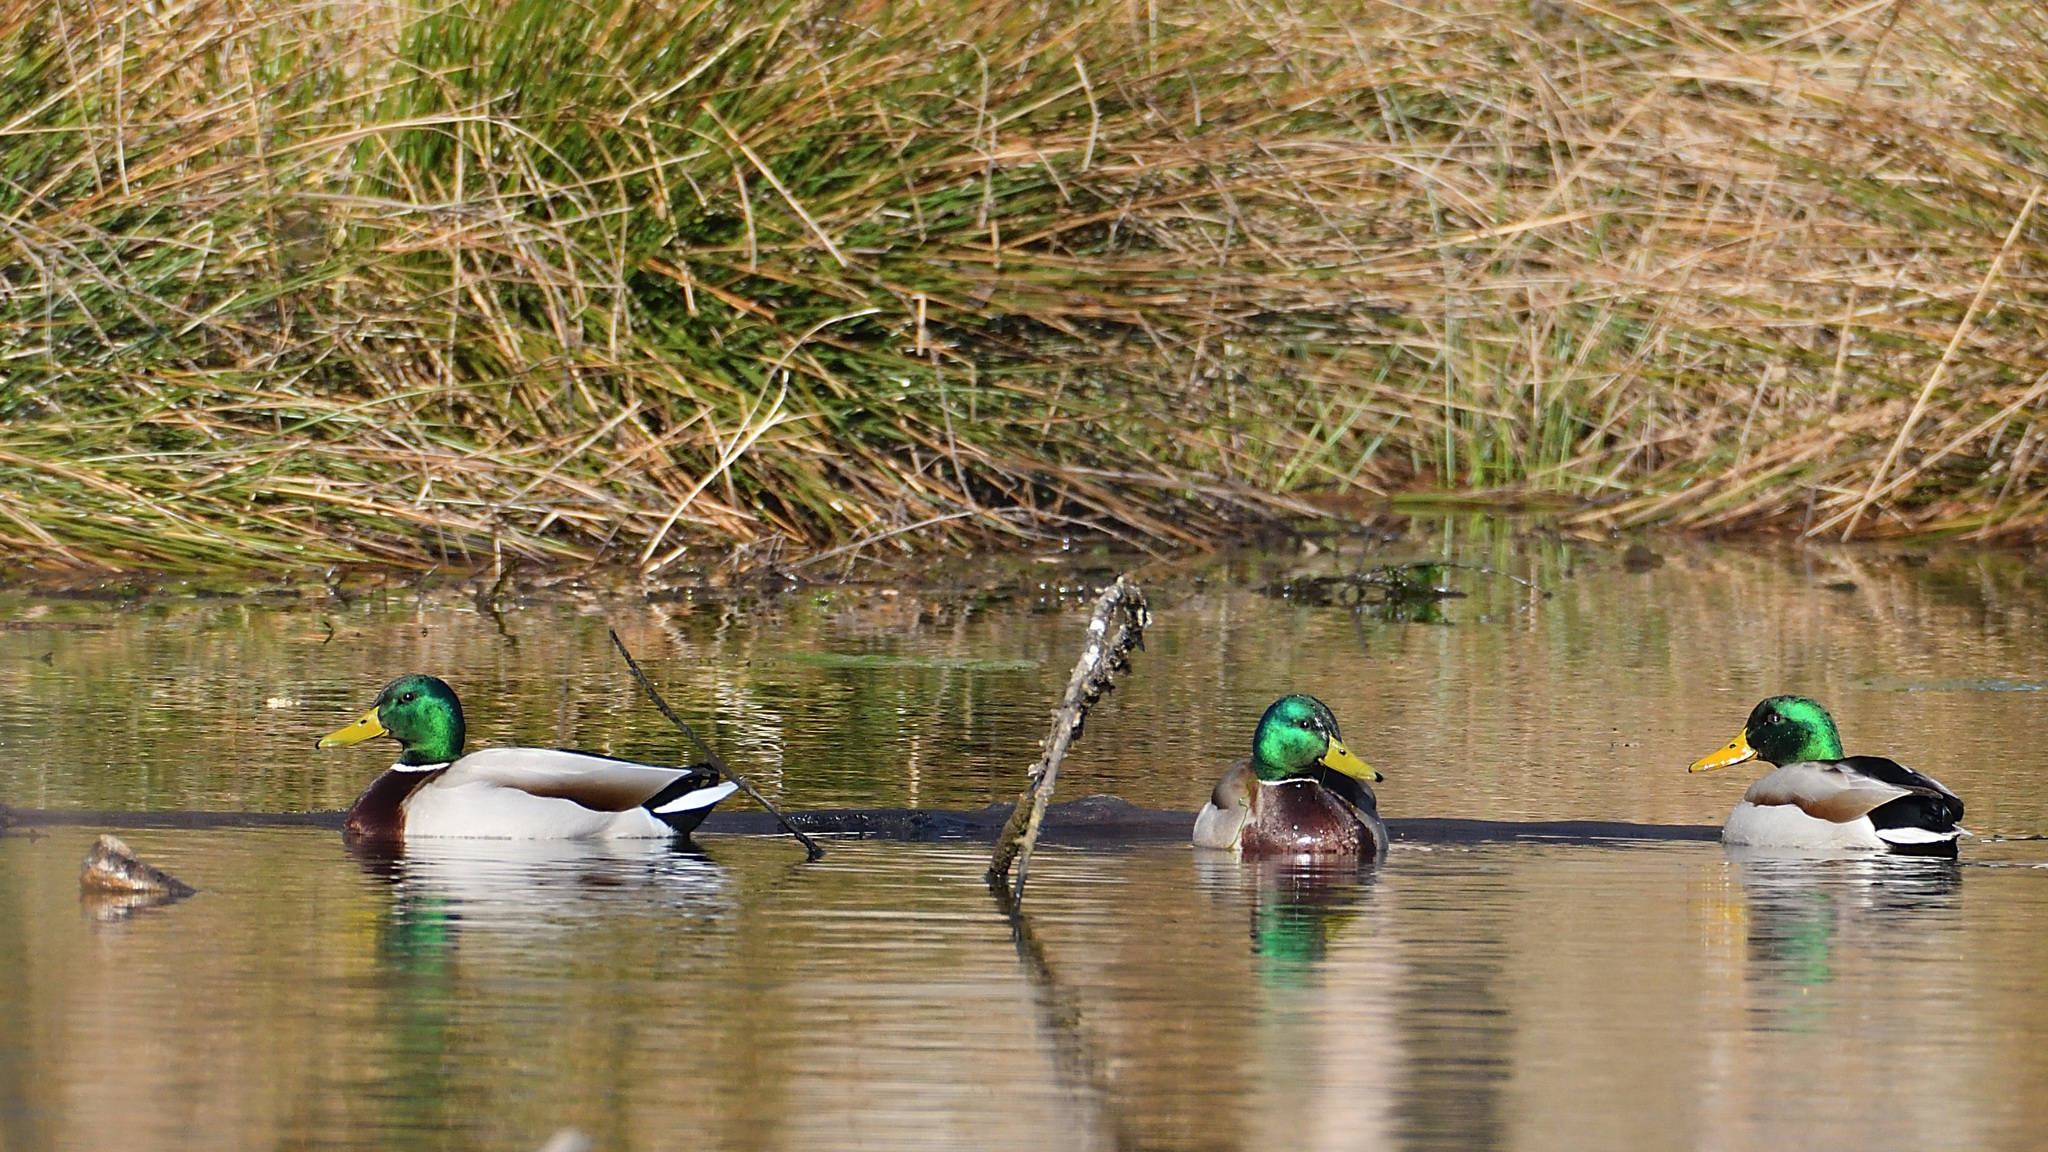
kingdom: Animalia
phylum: Chordata
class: Aves
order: Anseriformes
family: Anatidae
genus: Anas
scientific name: Anas platyrhynchos
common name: Mallard
